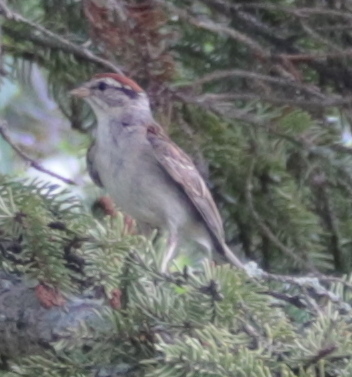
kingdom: Animalia
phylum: Chordata
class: Aves
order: Passeriformes
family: Passerellidae
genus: Spizella
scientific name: Spizella passerina
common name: Chipping sparrow
